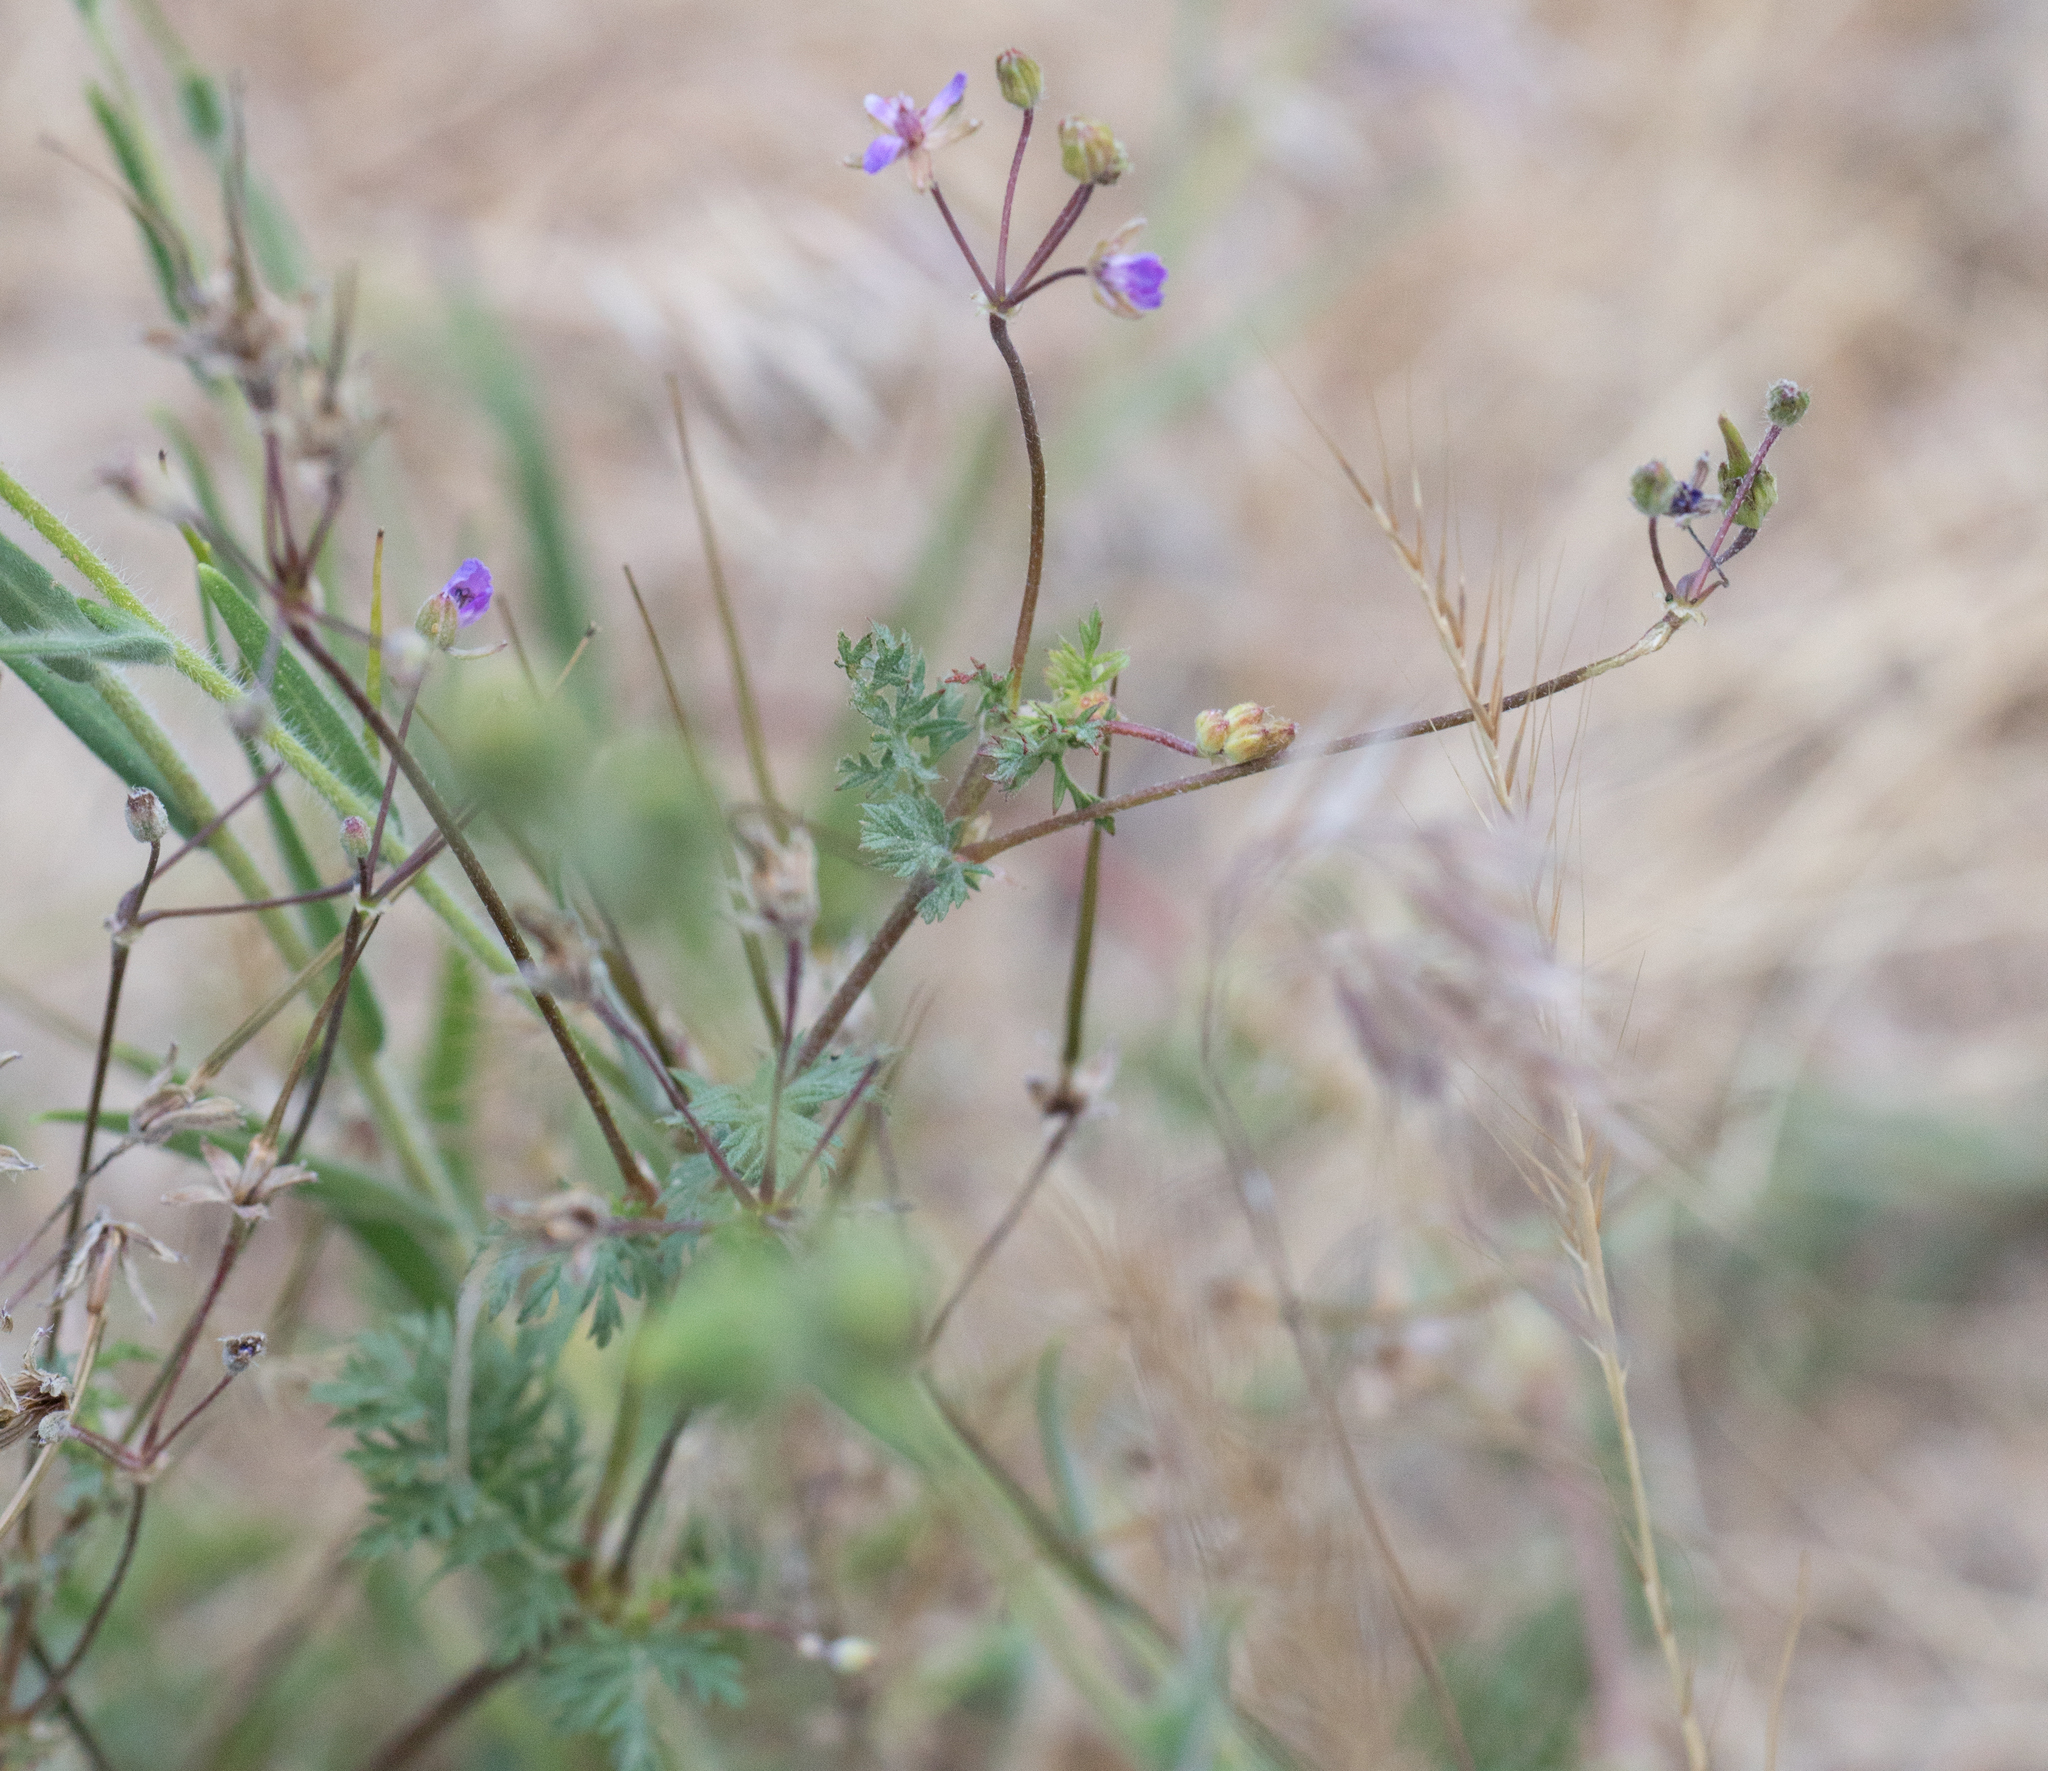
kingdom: Plantae
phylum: Tracheophyta
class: Magnoliopsida
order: Geraniales
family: Geraniaceae
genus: Erodium
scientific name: Erodium cicutarium
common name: Common stork's-bill
